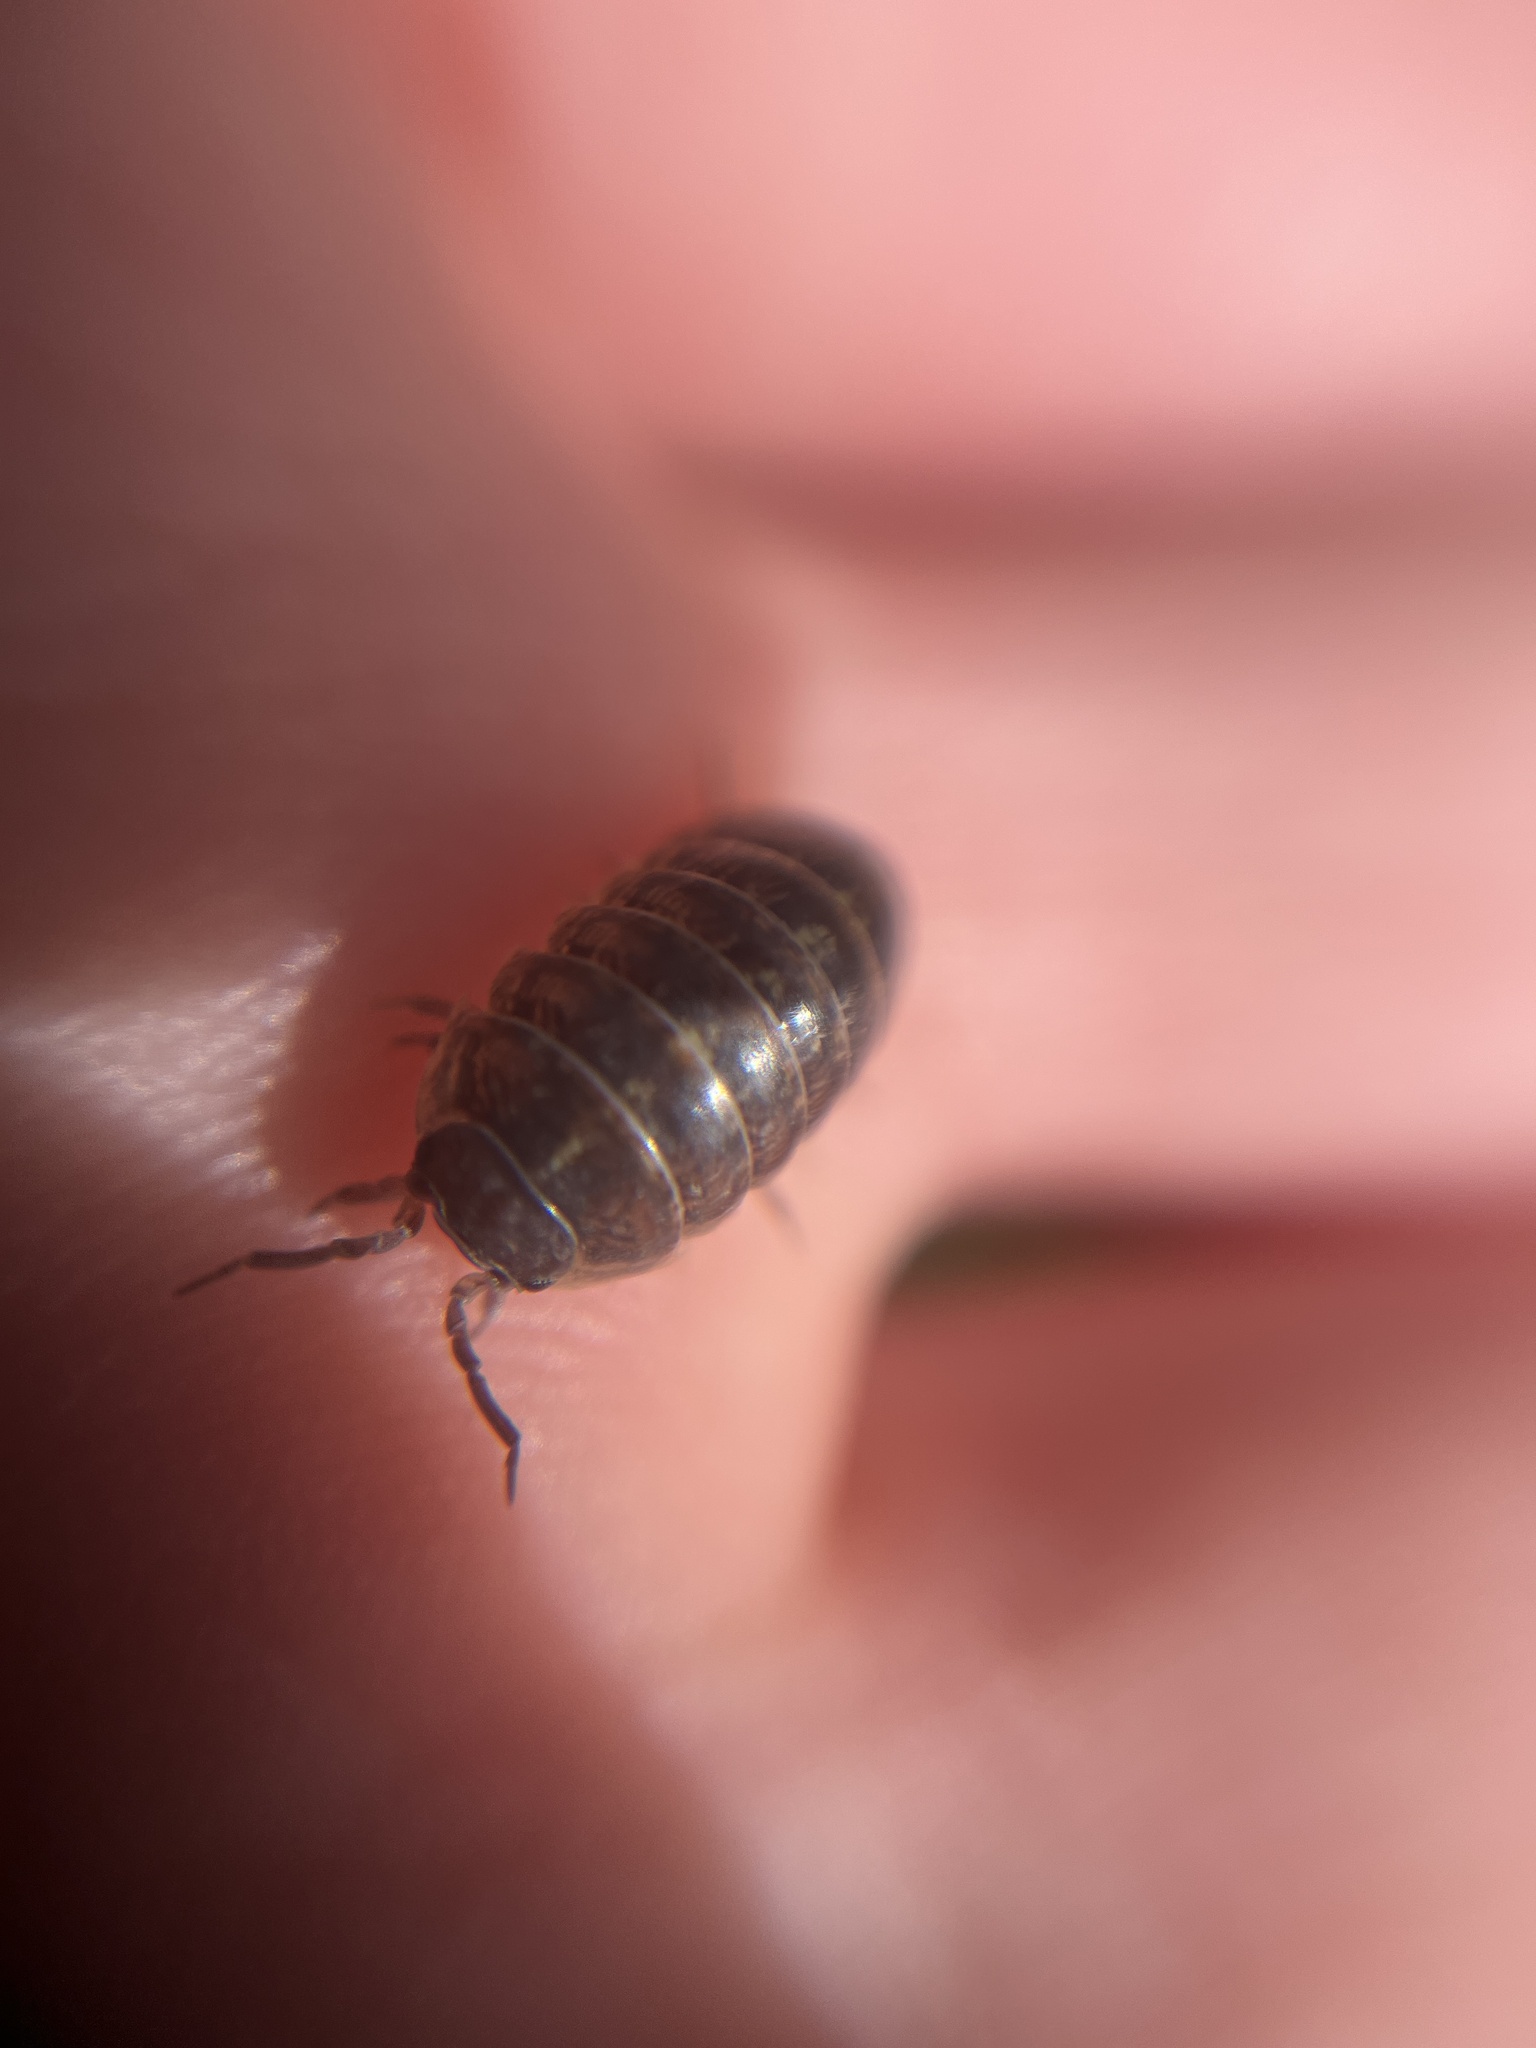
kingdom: Animalia
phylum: Arthropoda
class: Malacostraca
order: Isopoda
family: Armadillidiidae
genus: Armadillidium
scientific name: Armadillidium vulgare
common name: Common pill woodlouse
